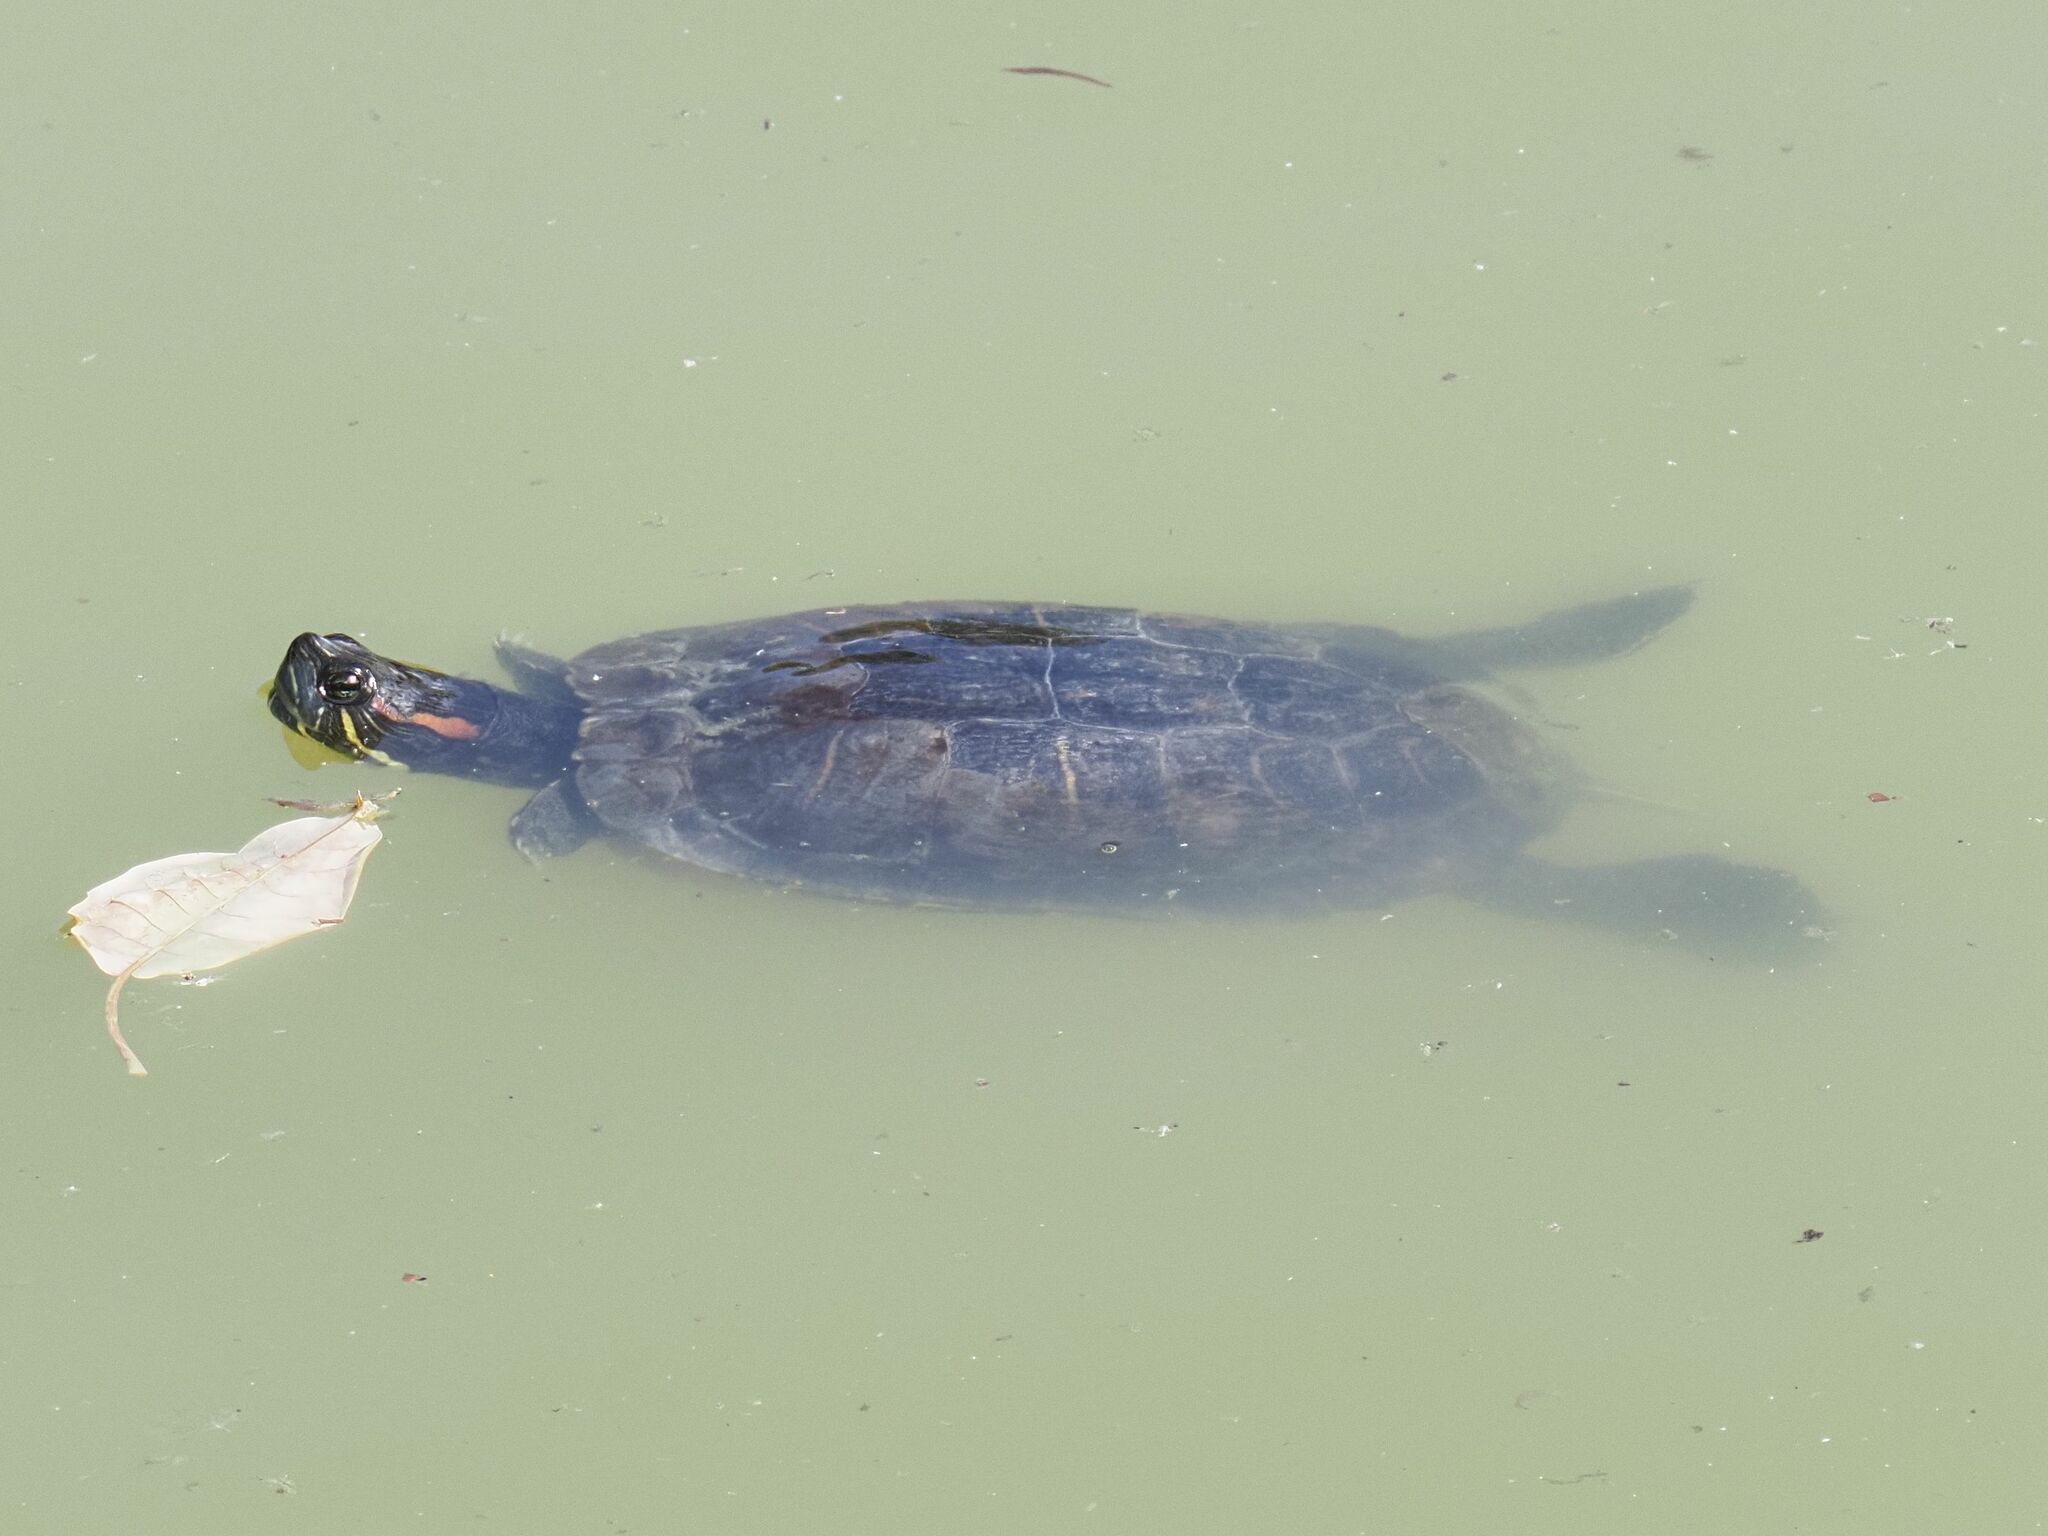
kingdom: Animalia
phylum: Chordata
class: Testudines
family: Emydidae
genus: Trachemys
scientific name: Trachemys scripta
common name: Slider
